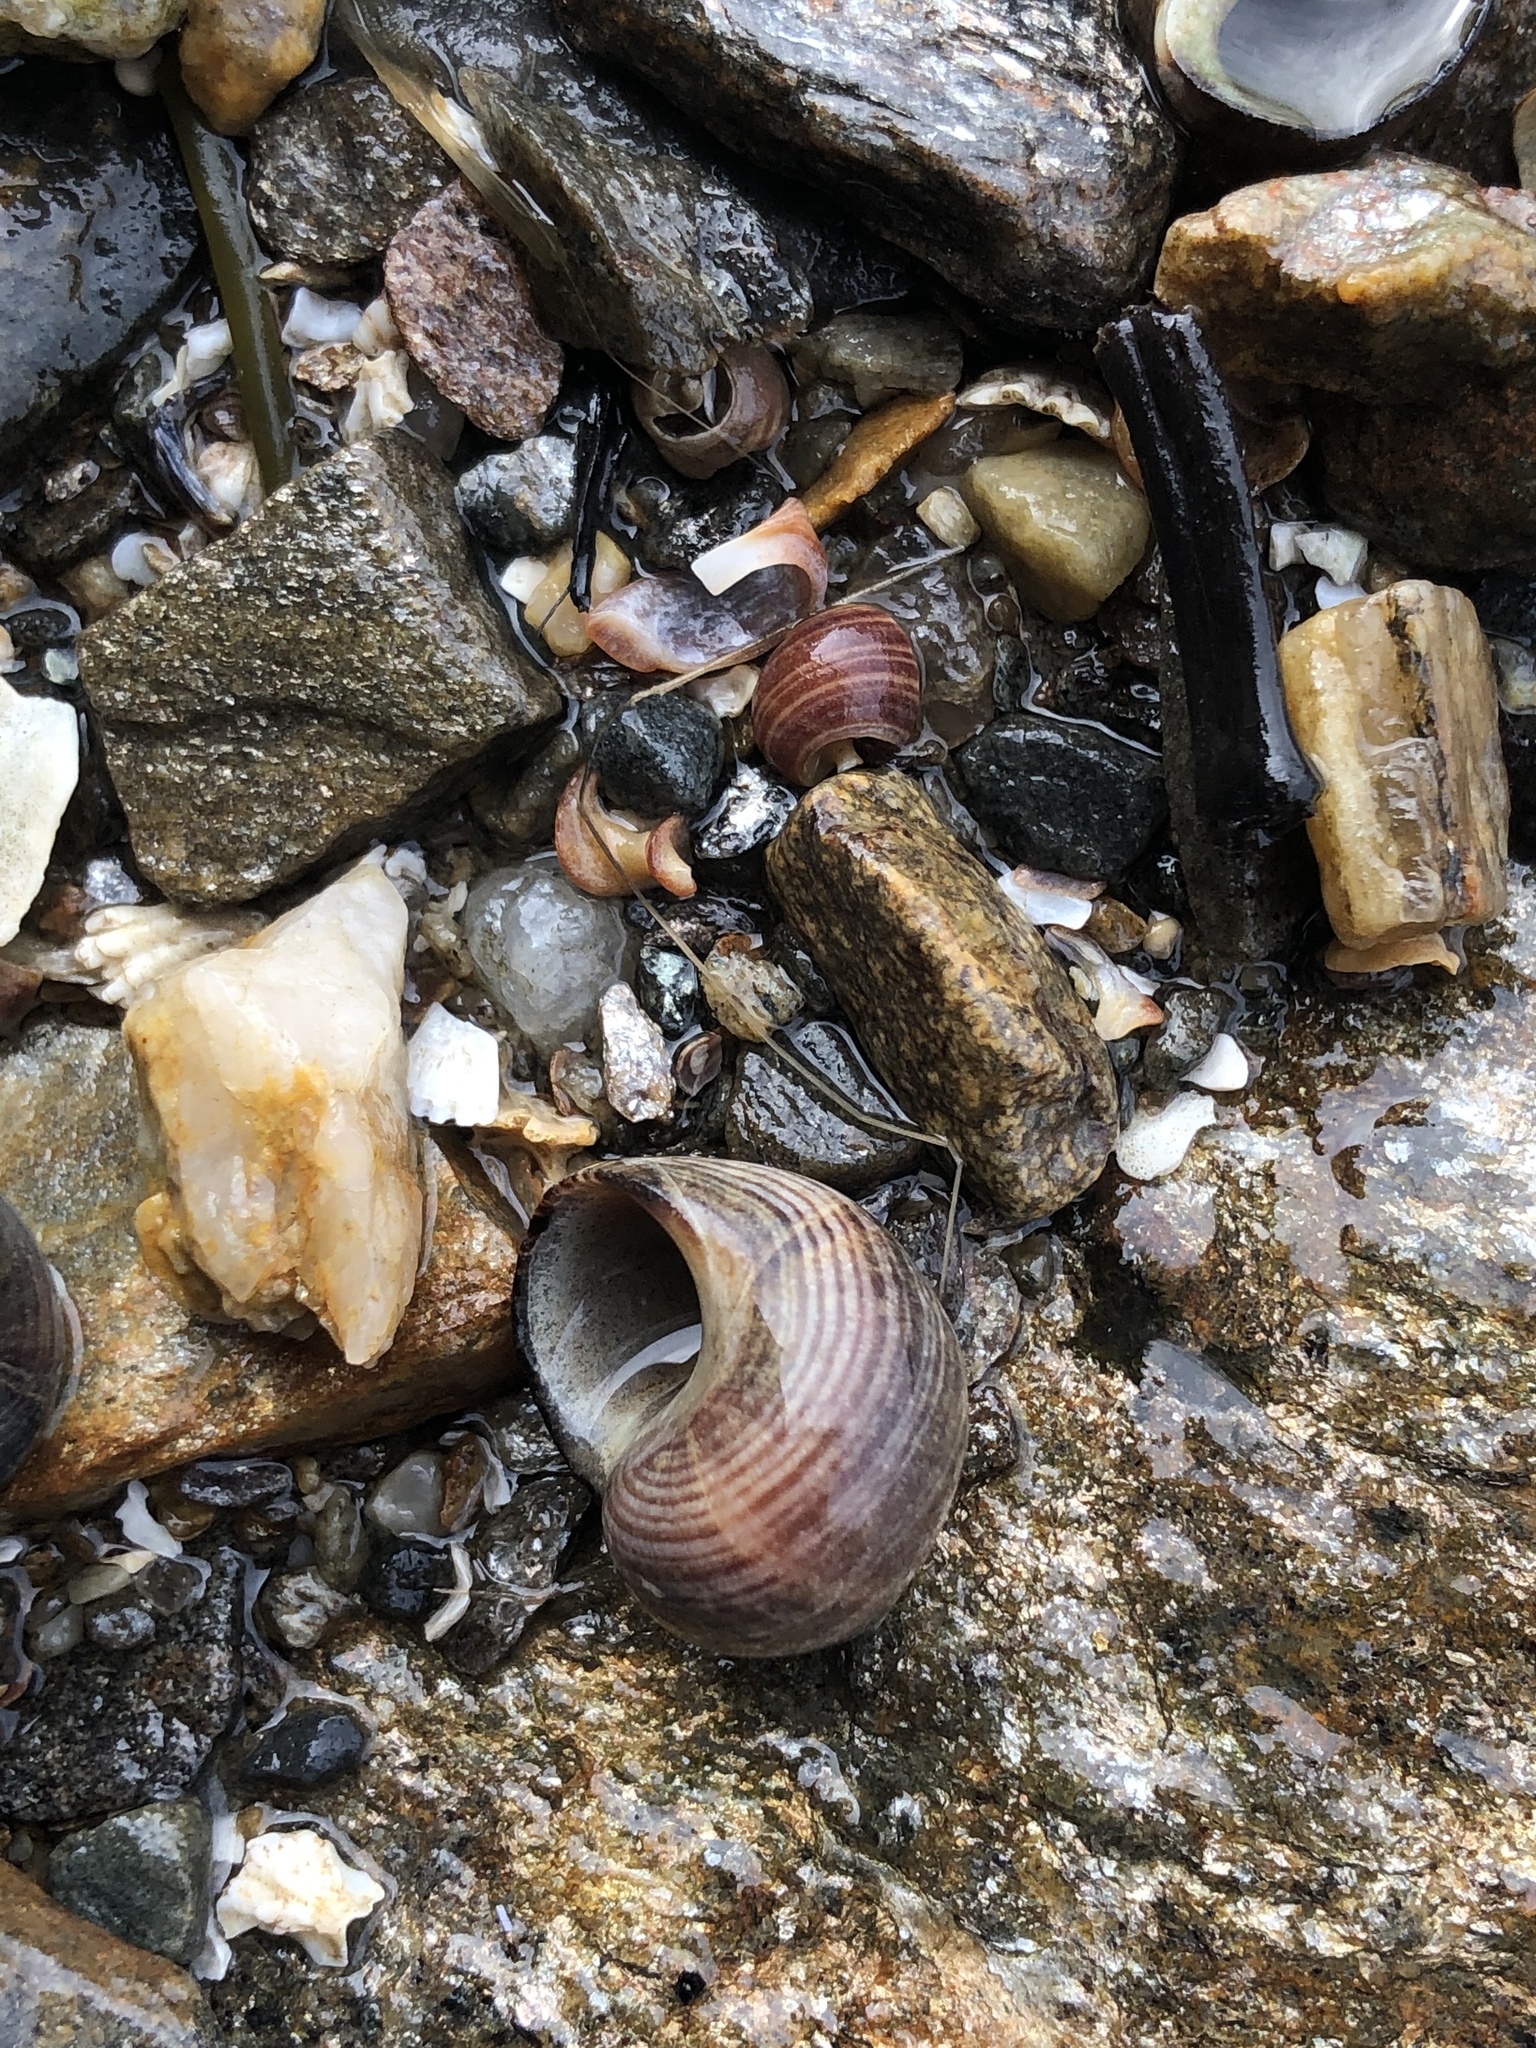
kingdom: Animalia
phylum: Mollusca
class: Gastropoda
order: Littorinimorpha
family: Littorinidae
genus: Littorina
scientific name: Littorina littorea
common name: Common periwinkle
